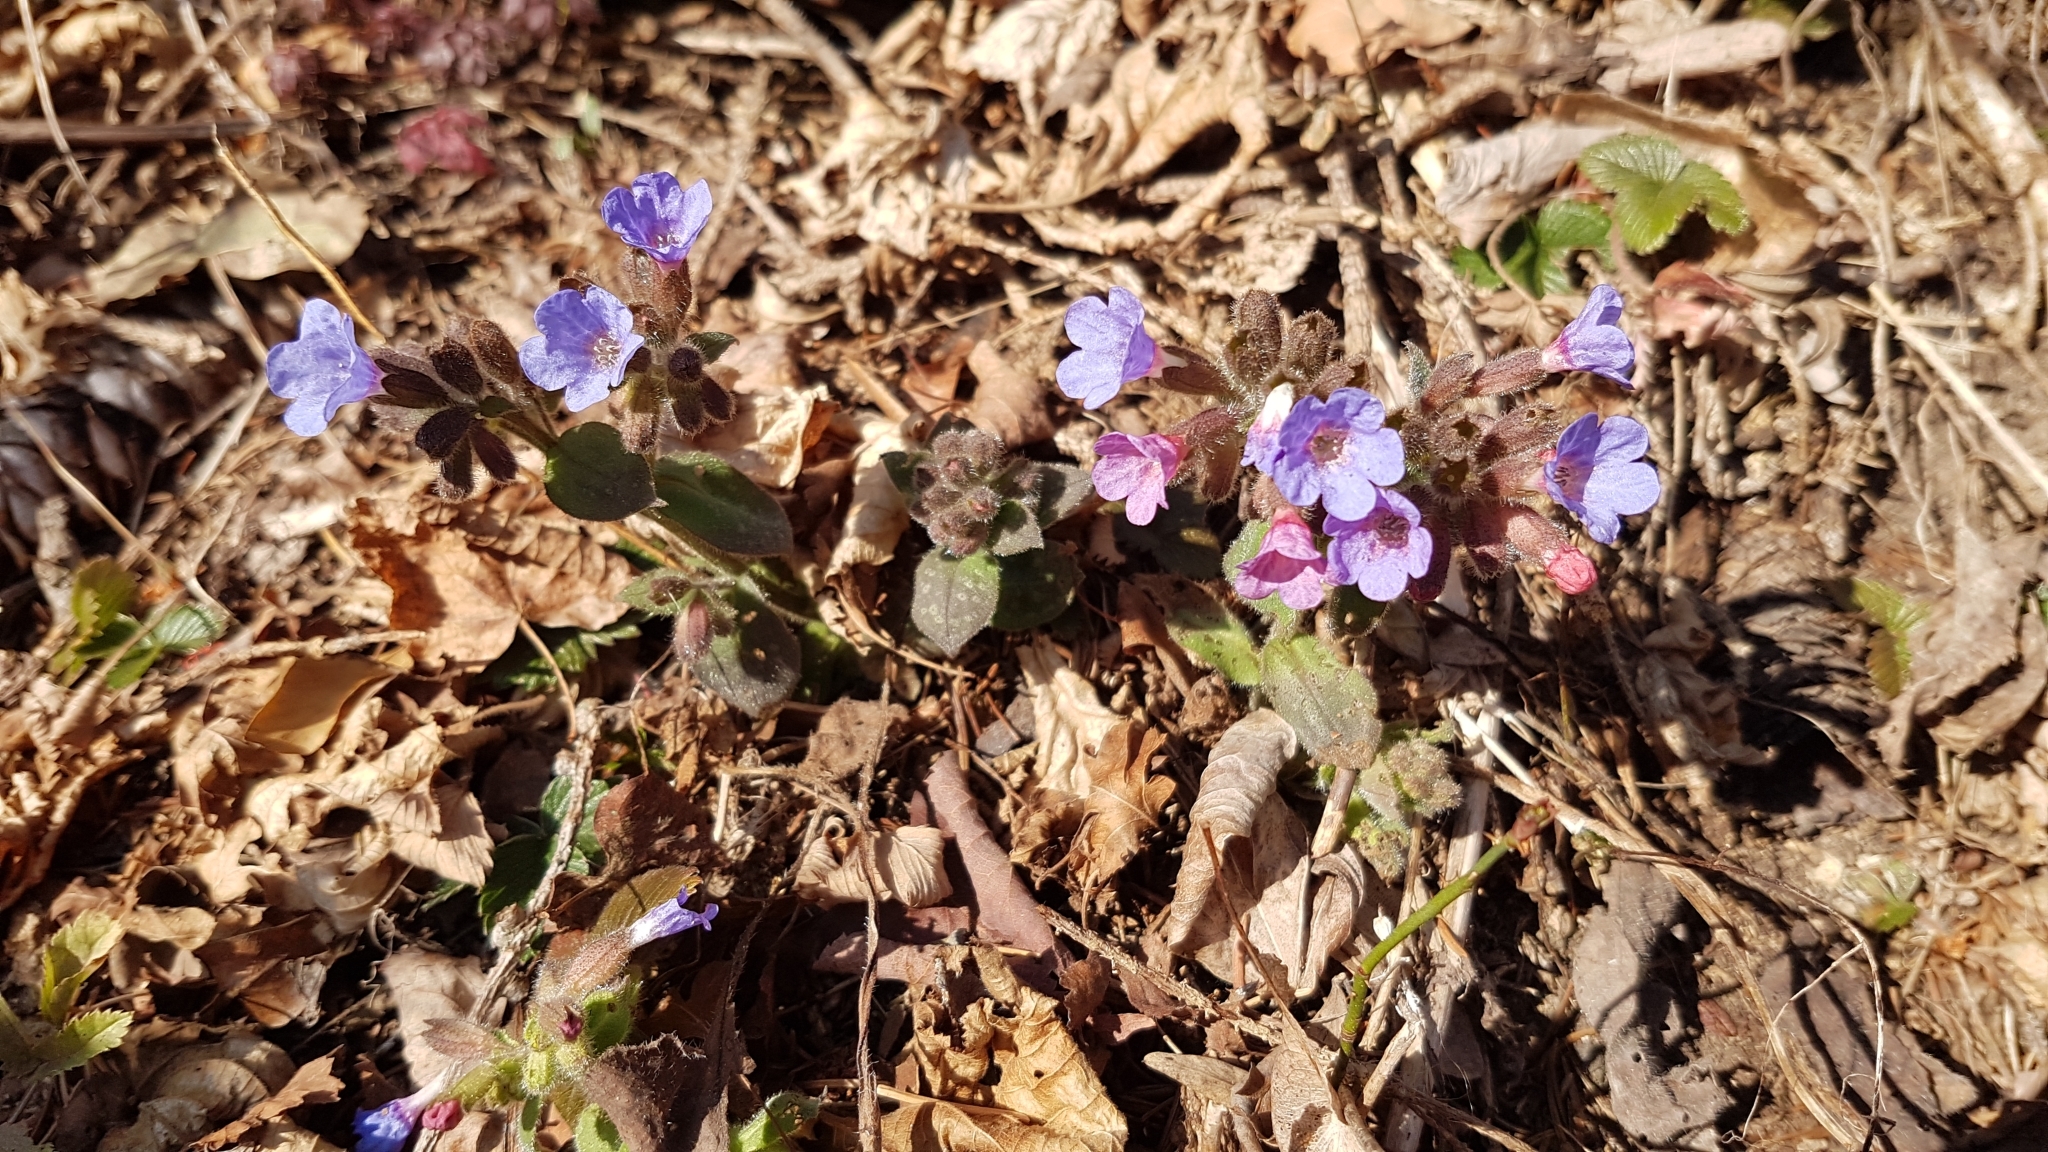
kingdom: Plantae
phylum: Tracheophyta
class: Magnoliopsida
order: Boraginales
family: Boraginaceae
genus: Pulmonaria
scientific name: Pulmonaria officinalis
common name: Lungwort
